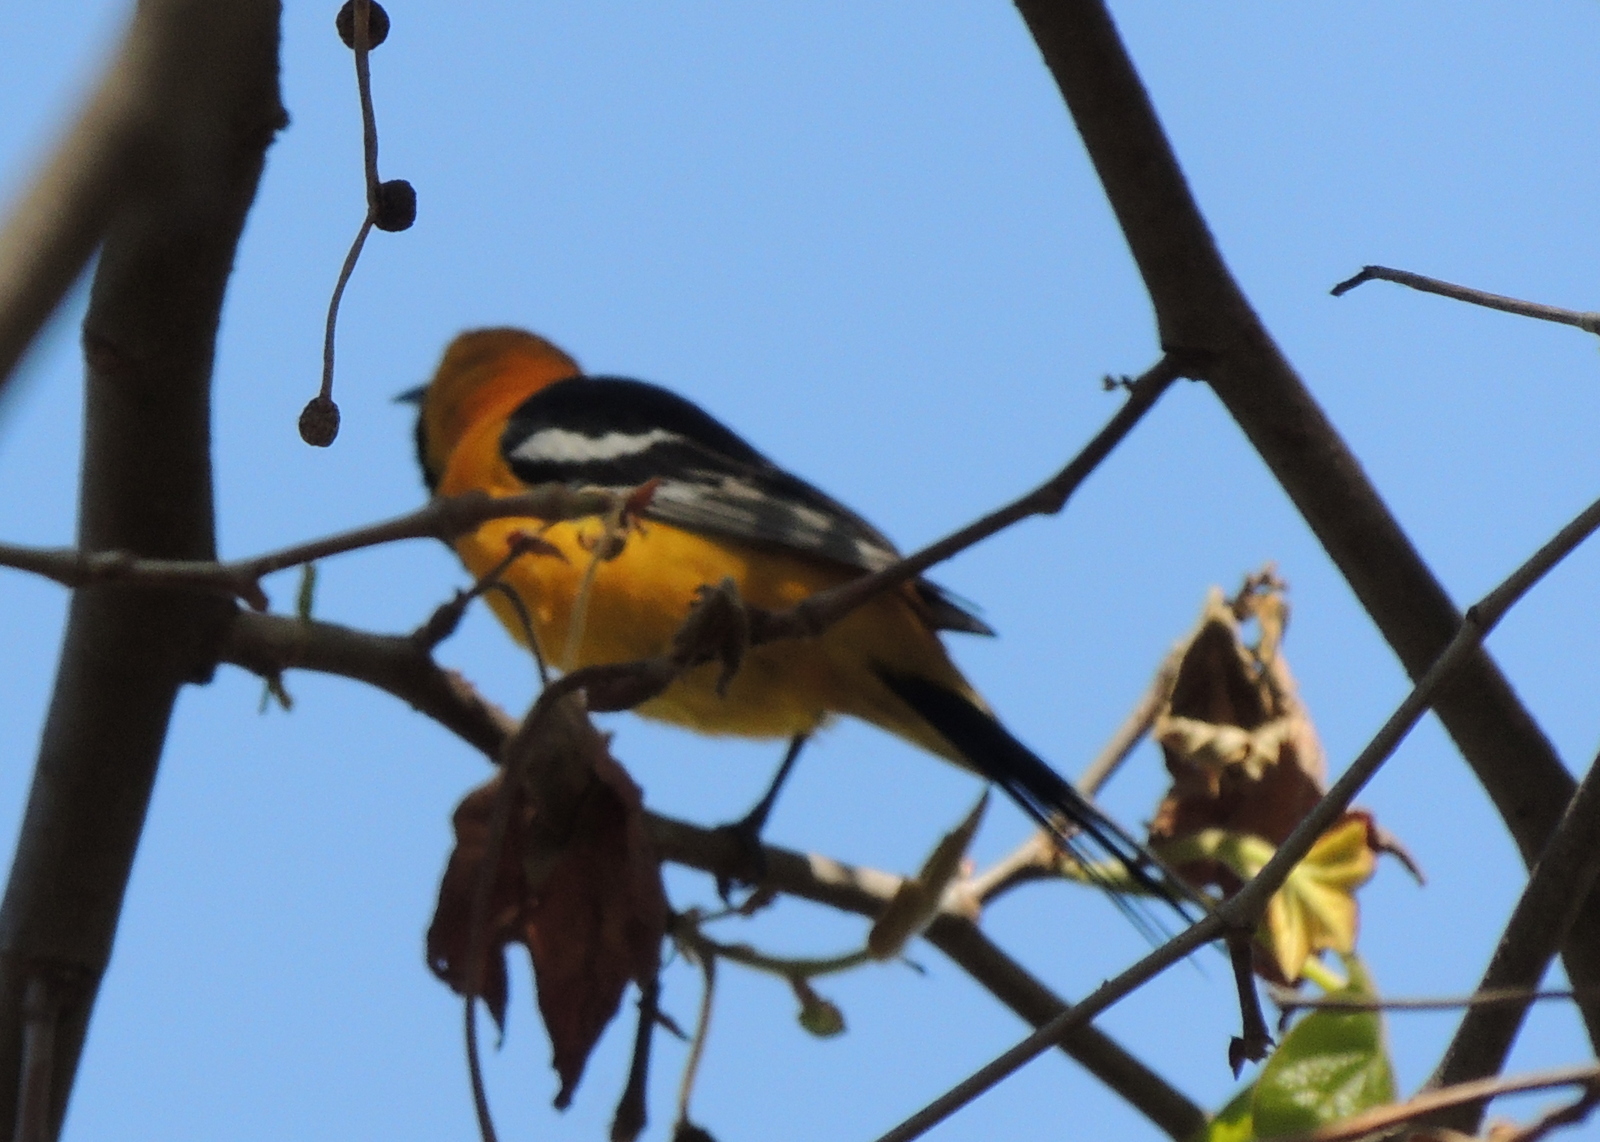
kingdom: Animalia
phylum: Chordata
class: Aves
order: Passeriformes
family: Icteridae
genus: Icterus
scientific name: Icterus cucullatus
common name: Hooded oriole
